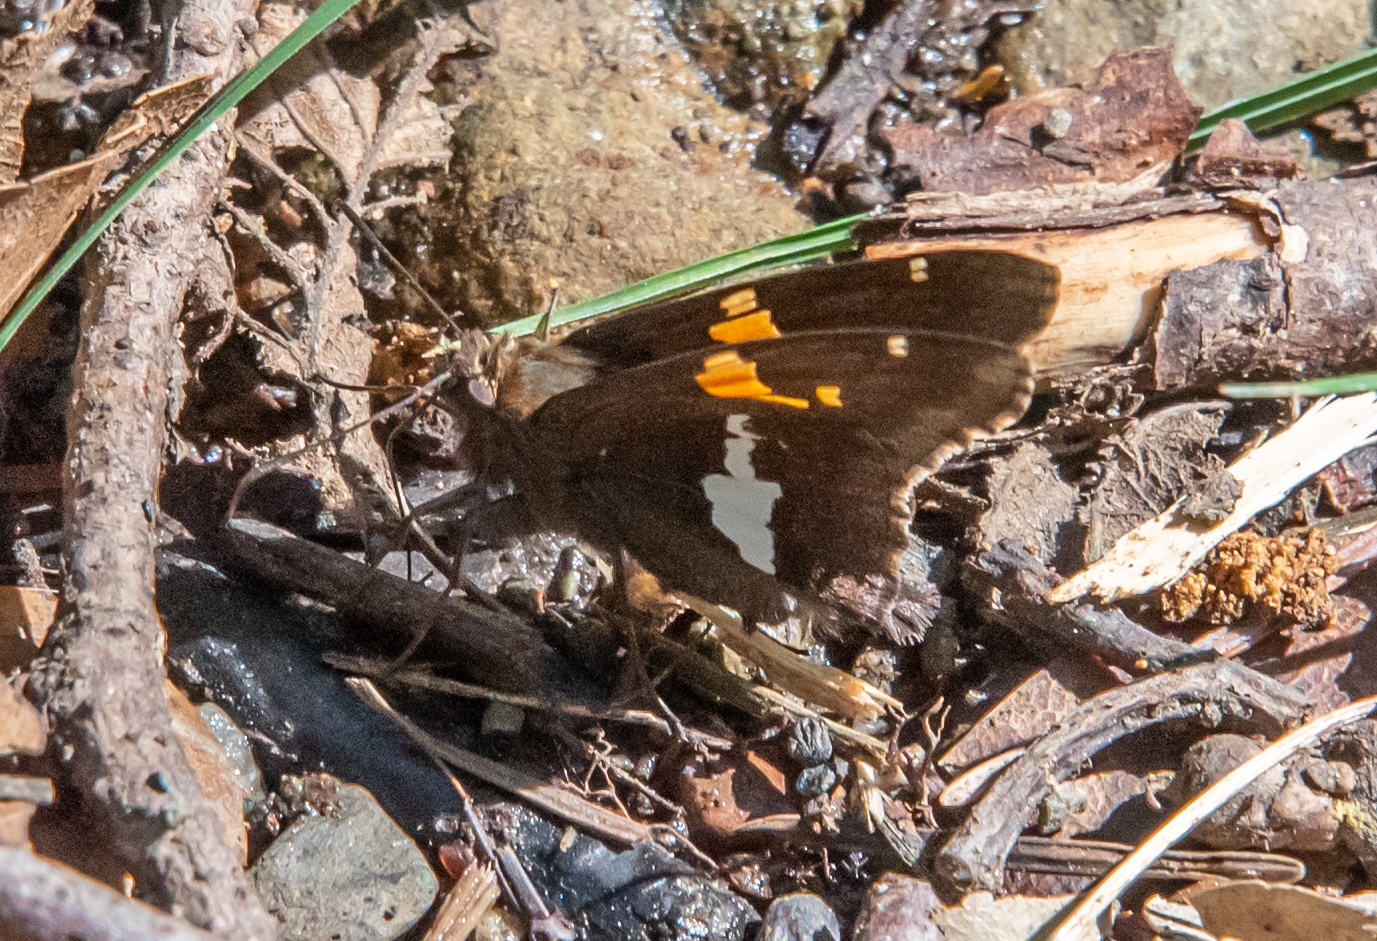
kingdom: Animalia
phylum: Arthropoda
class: Insecta
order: Lepidoptera
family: Hesperiidae
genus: Epargyreus
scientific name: Epargyreus clarus
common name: Silver-spotted skipper
